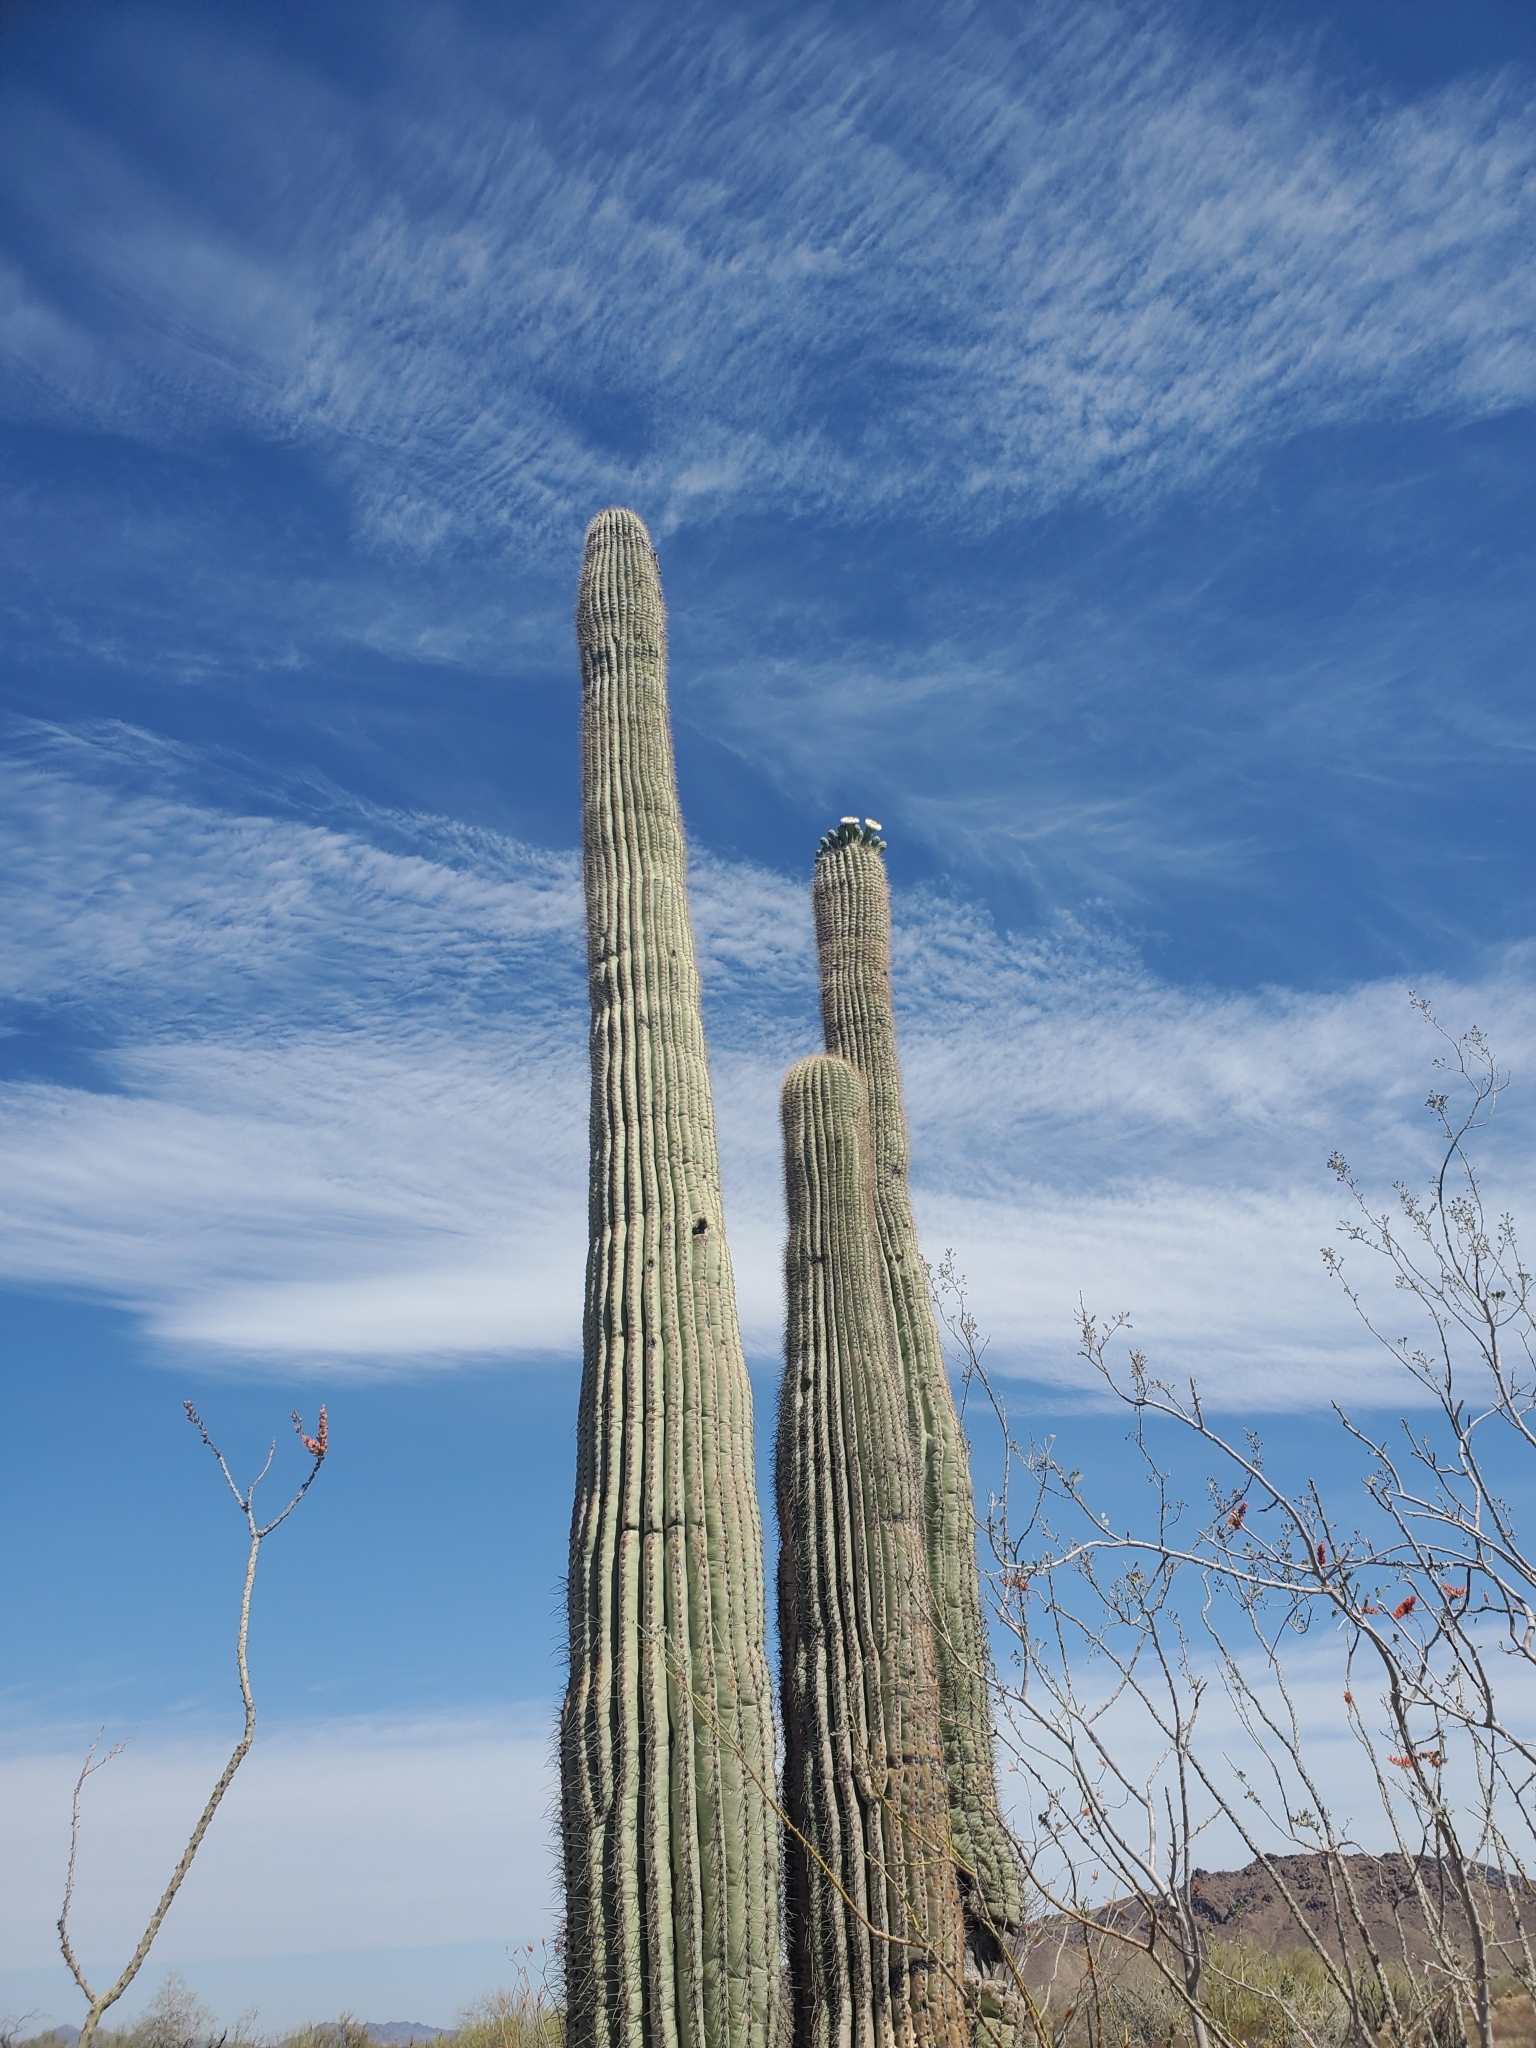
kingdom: Plantae
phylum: Tracheophyta
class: Magnoliopsida
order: Caryophyllales
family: Cactaceae
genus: Carnegiea
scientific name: Carnegiea gigantea
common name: Saguaro
